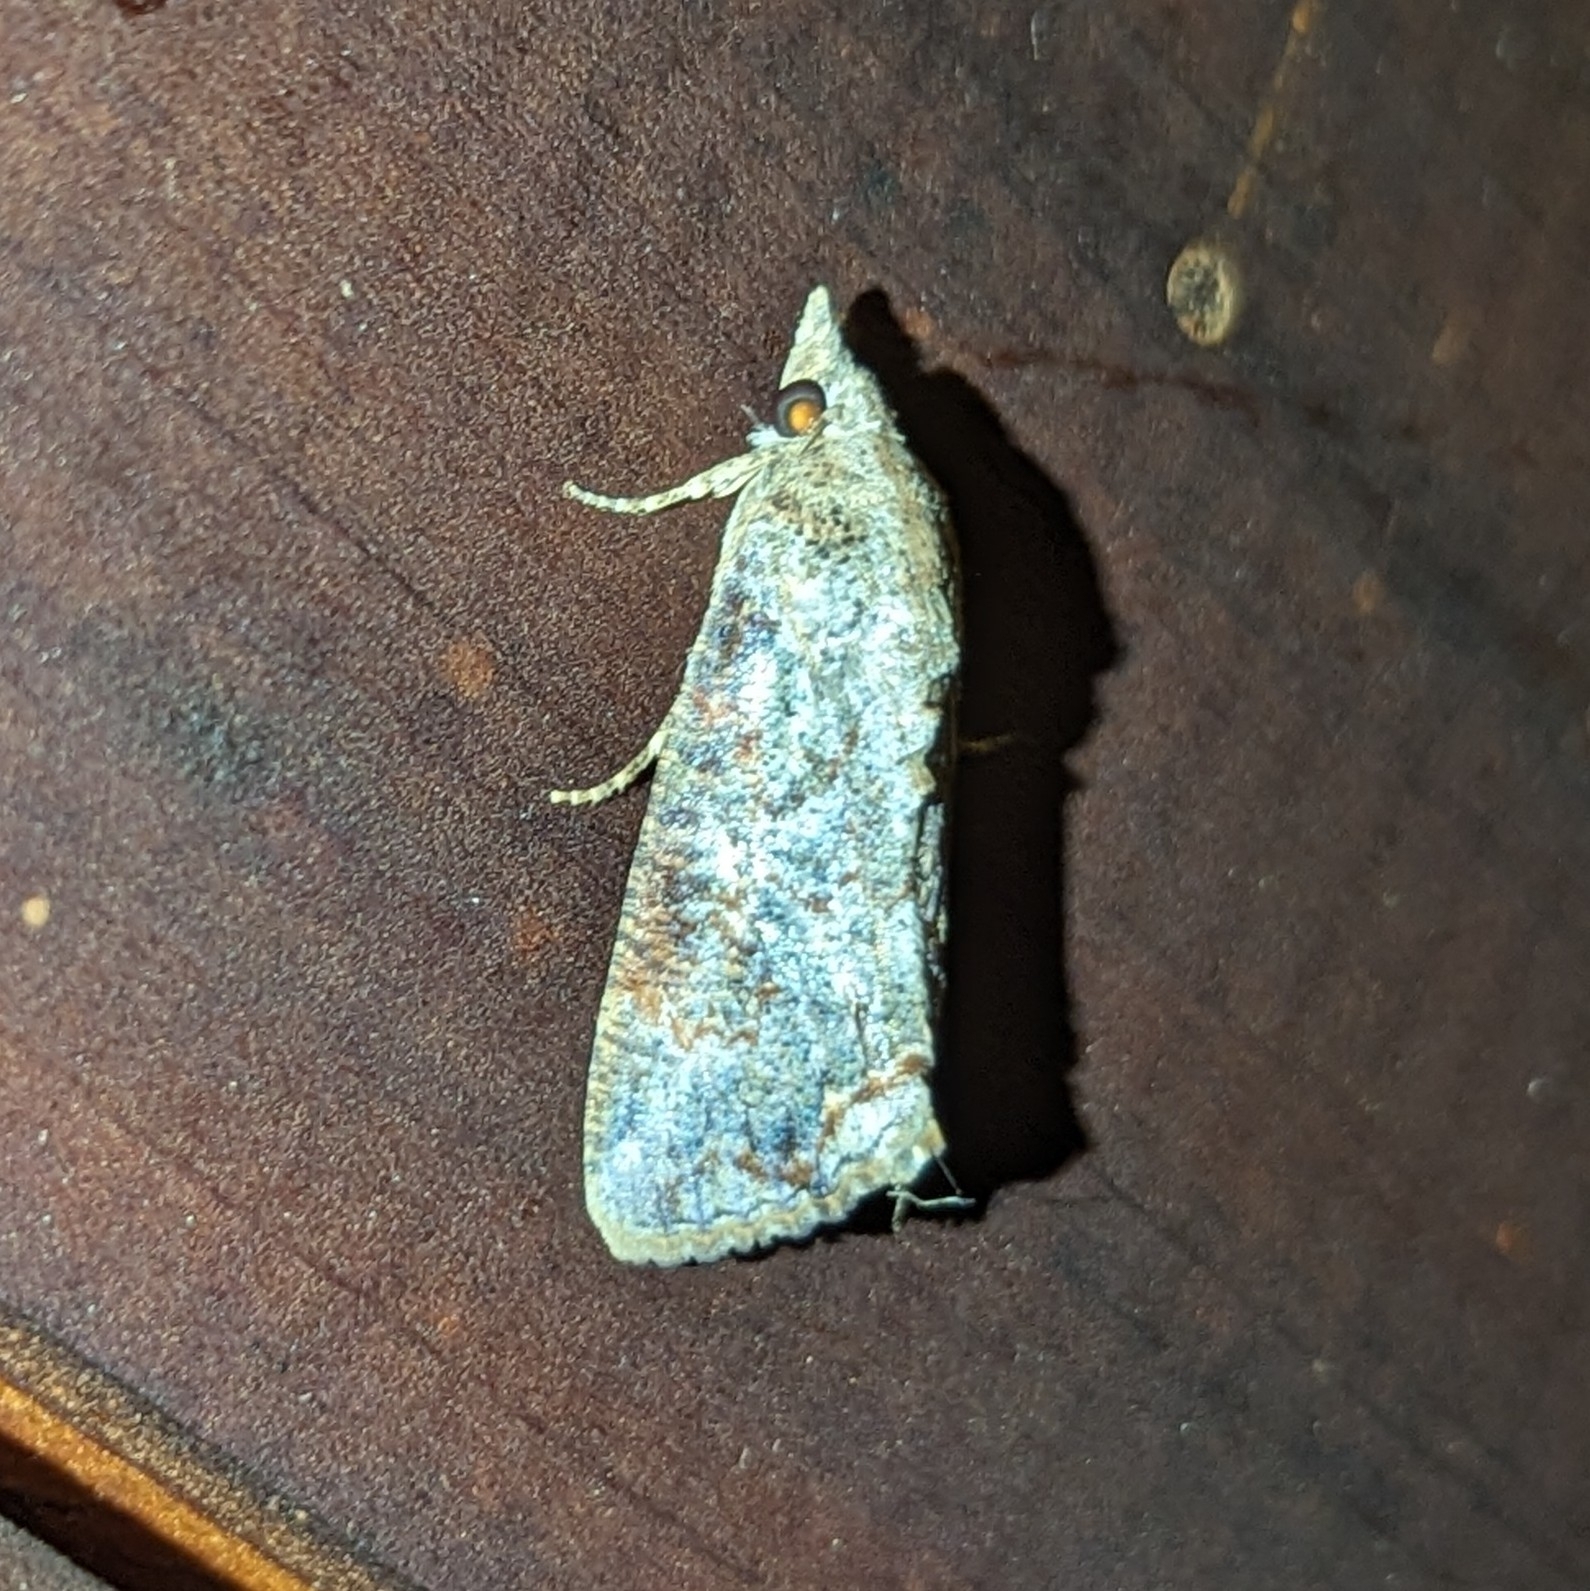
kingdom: Animalia
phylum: Arthropoda
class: Insecta
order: Lepidoptera
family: Erebidae
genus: Hypocala
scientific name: Hypocala deflorata
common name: Moth
